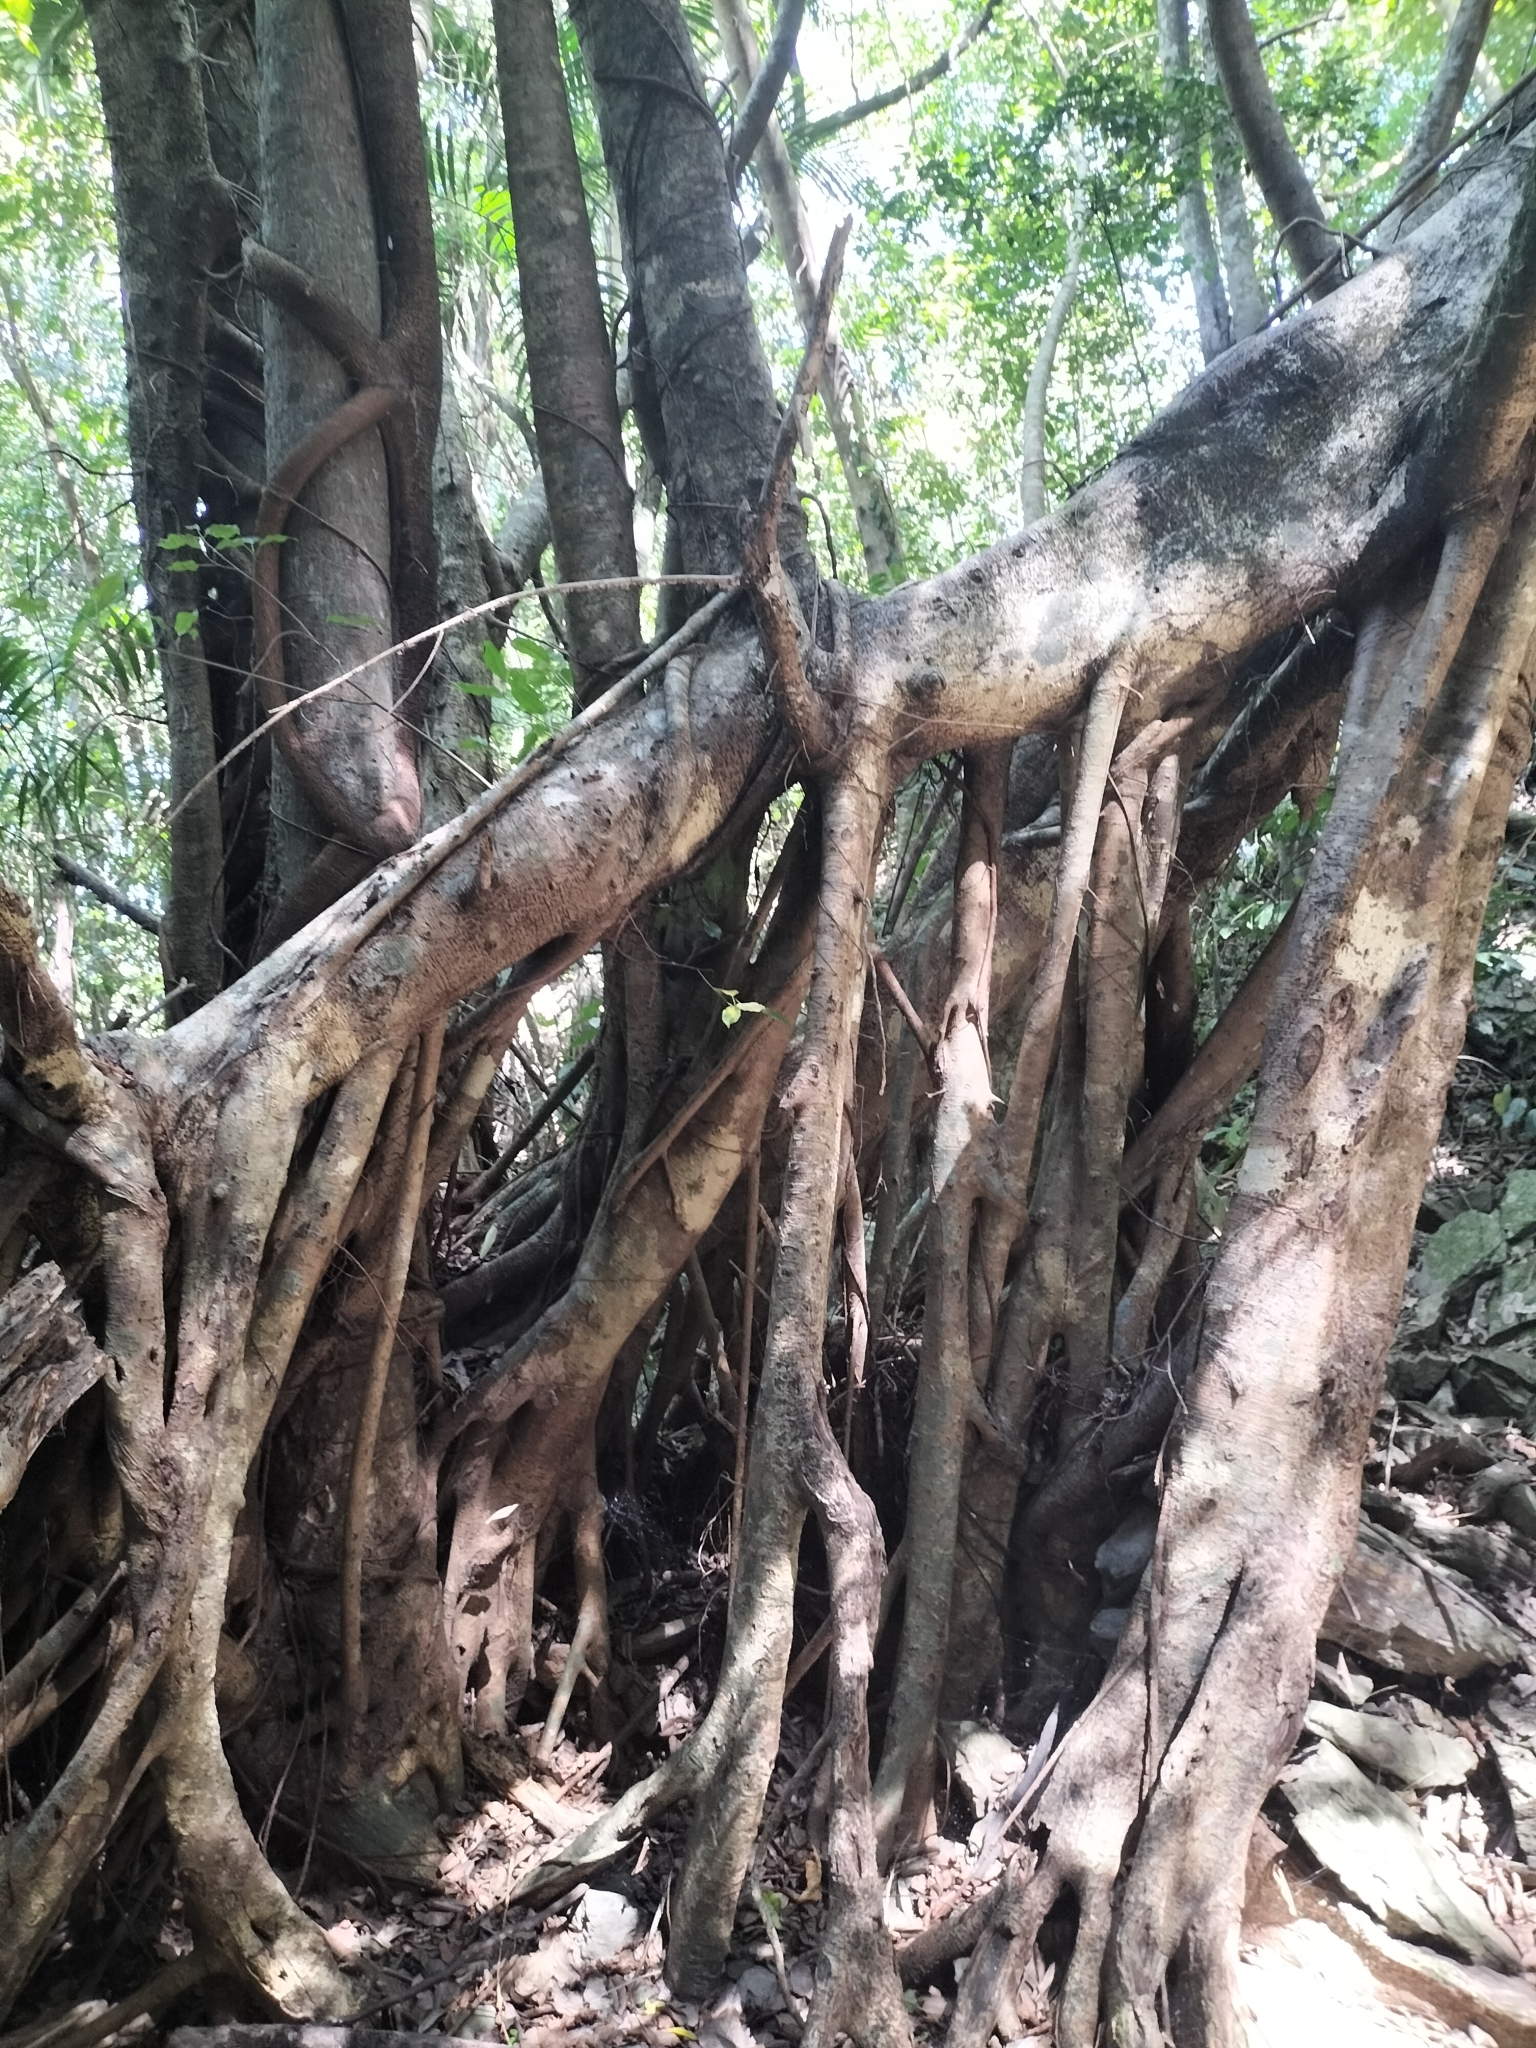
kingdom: Plantae
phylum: Tracheophyta
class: Magnoliopsida
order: Rosales
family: Moraceae
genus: Ficus
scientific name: Ficus virens
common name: Spotted fig
